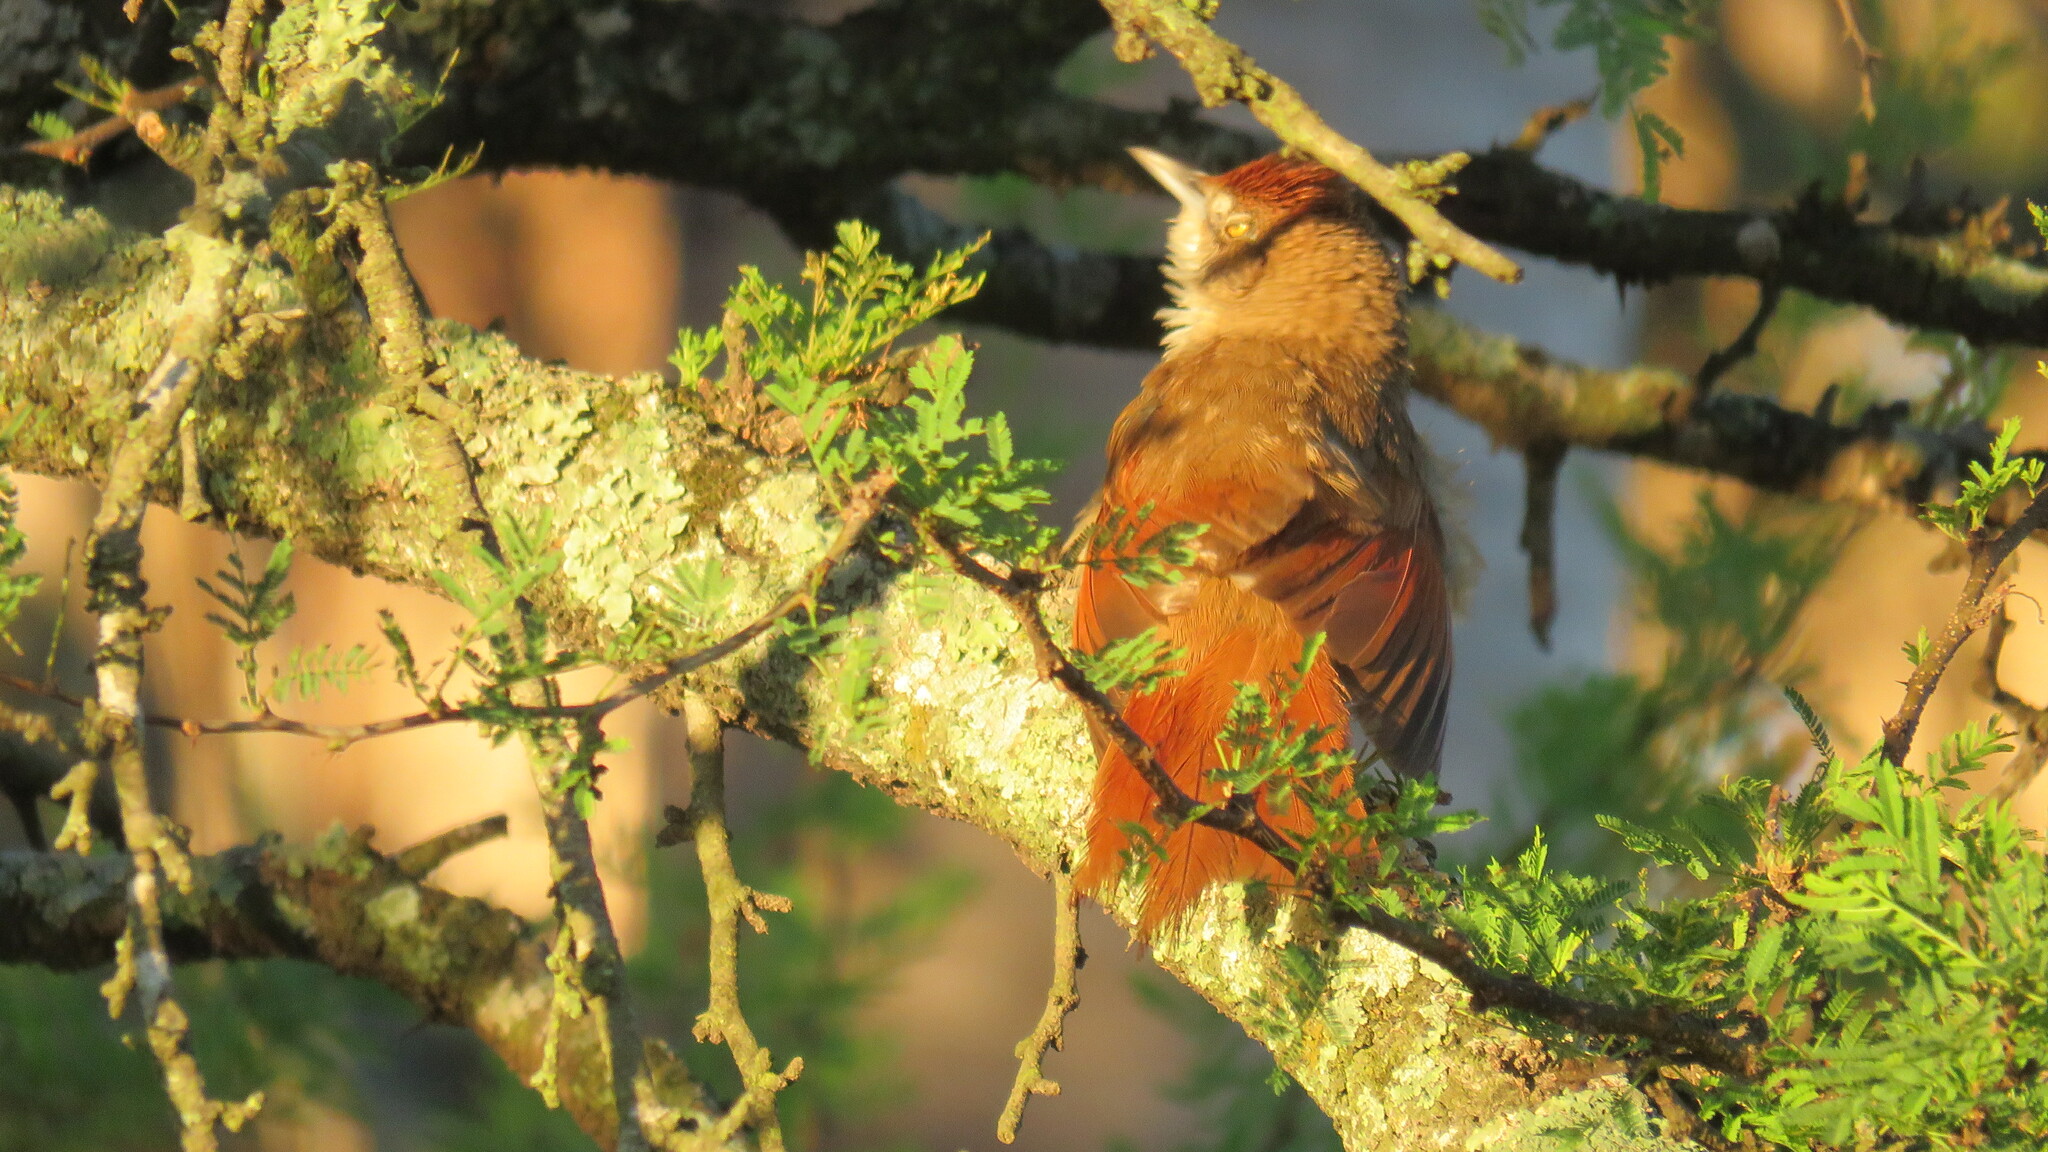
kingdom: Animalia
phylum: Chordata
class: Aves
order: Passeriformes
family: Furnariidae
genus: Phacellodomus
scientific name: Phacellodomus ruber
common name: Greater thornbird
